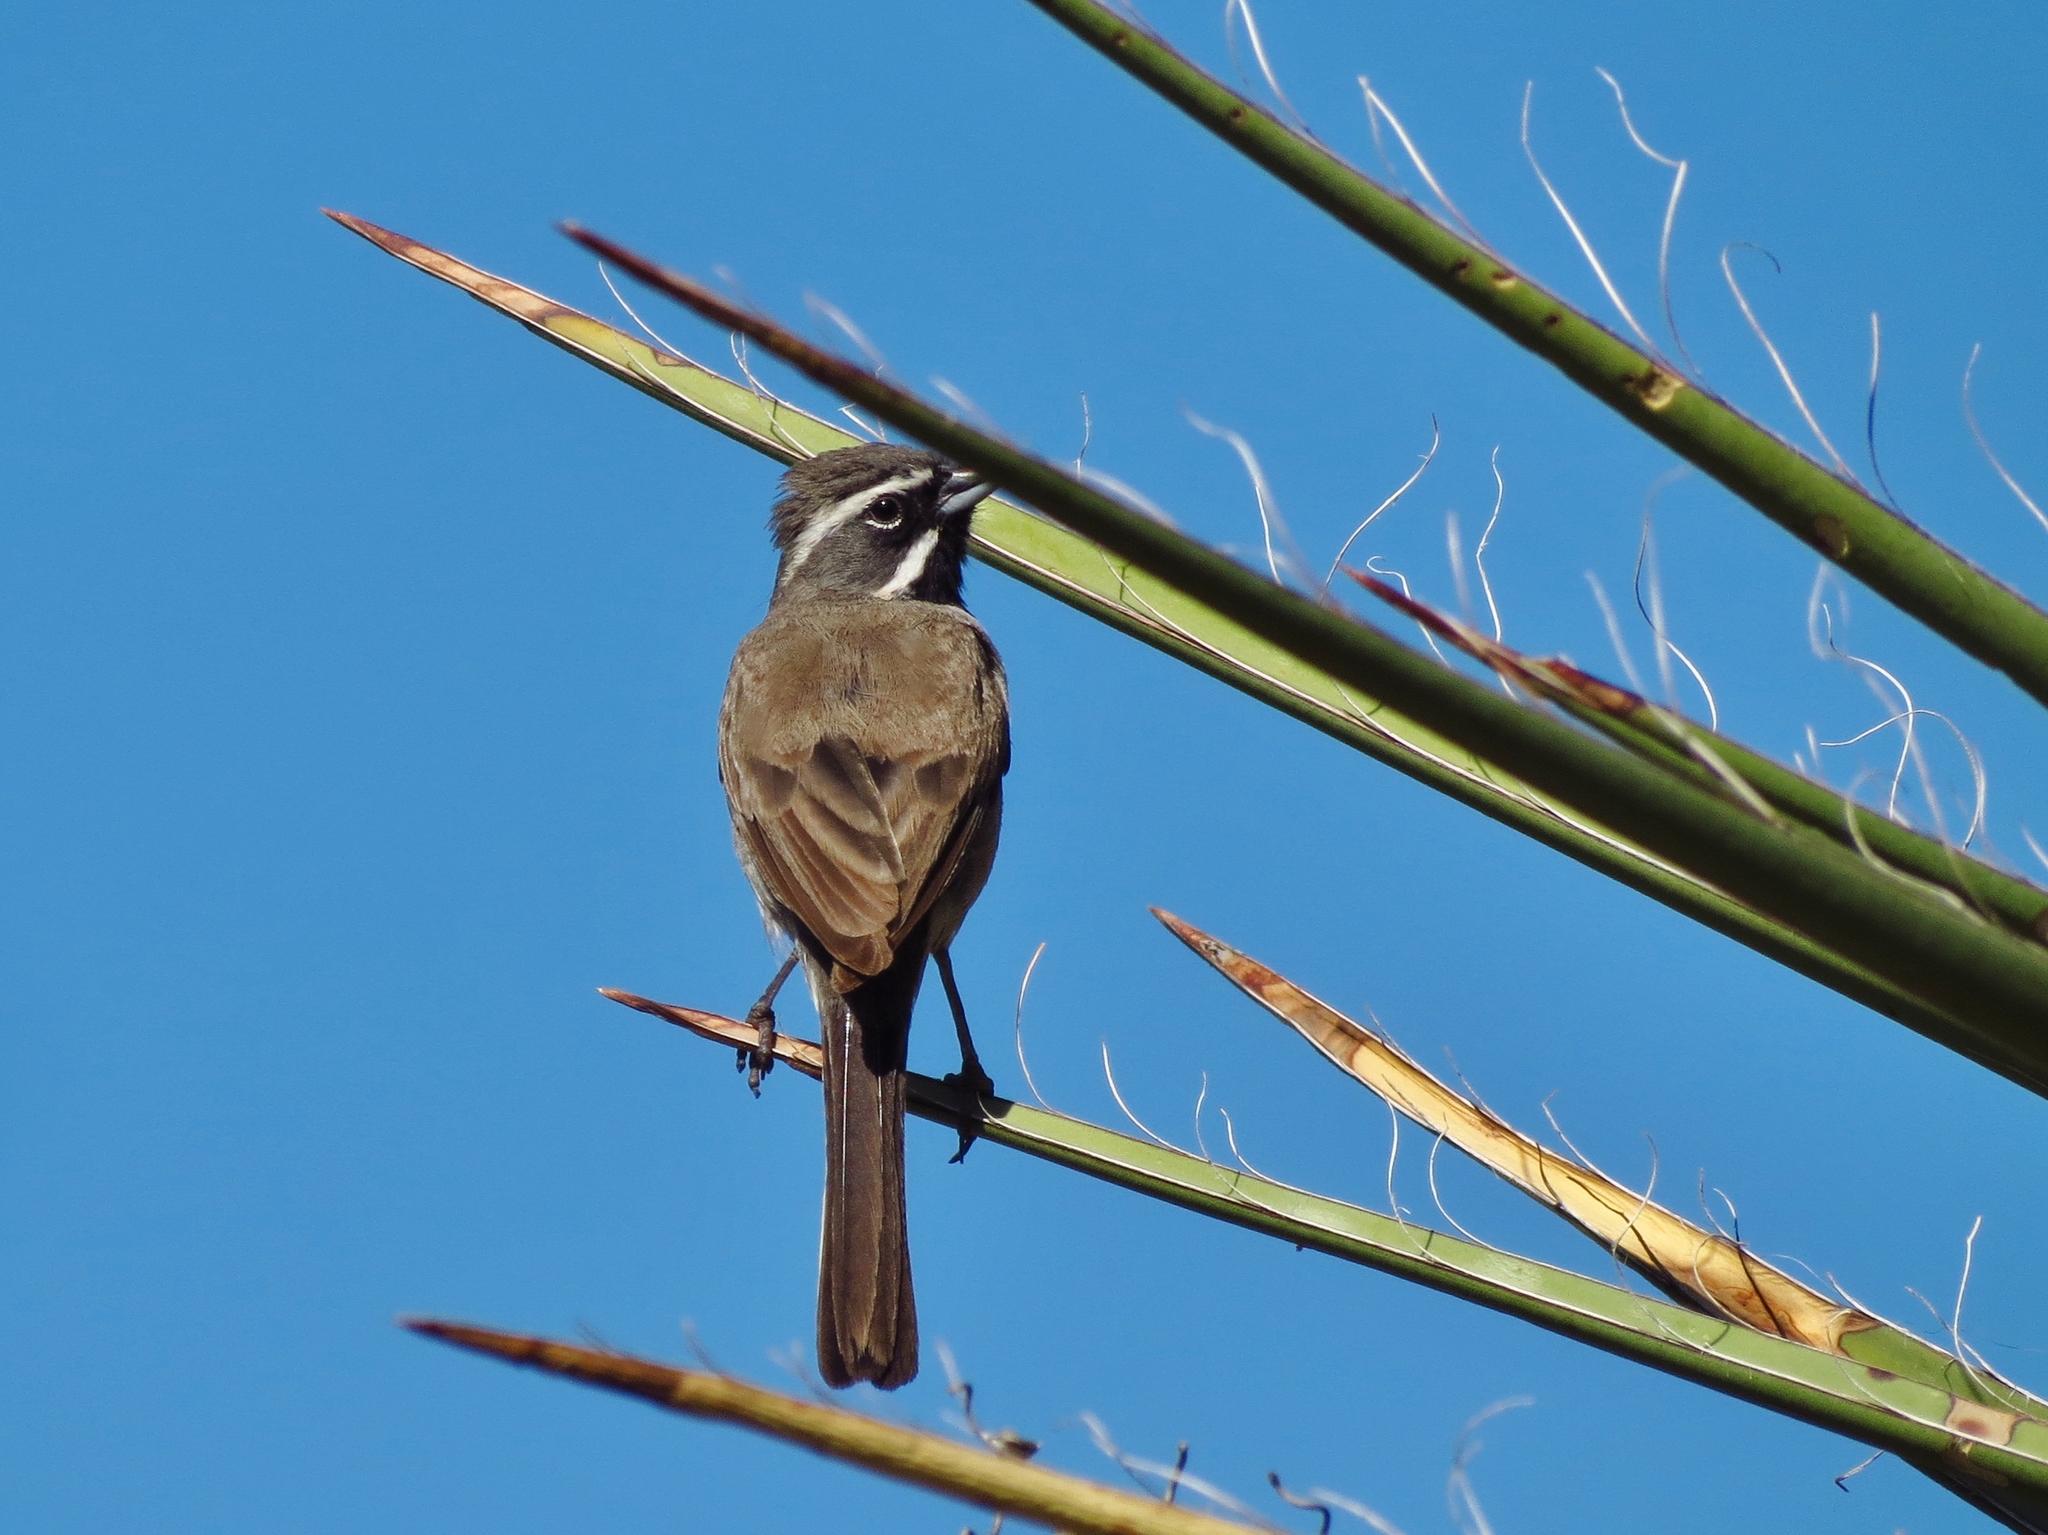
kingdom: Animalia
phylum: Chordata
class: Aves
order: Passeriformes
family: Passerellidae
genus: Amphispiza
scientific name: Amphispiza bilineata
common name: Black-throated sparrow
